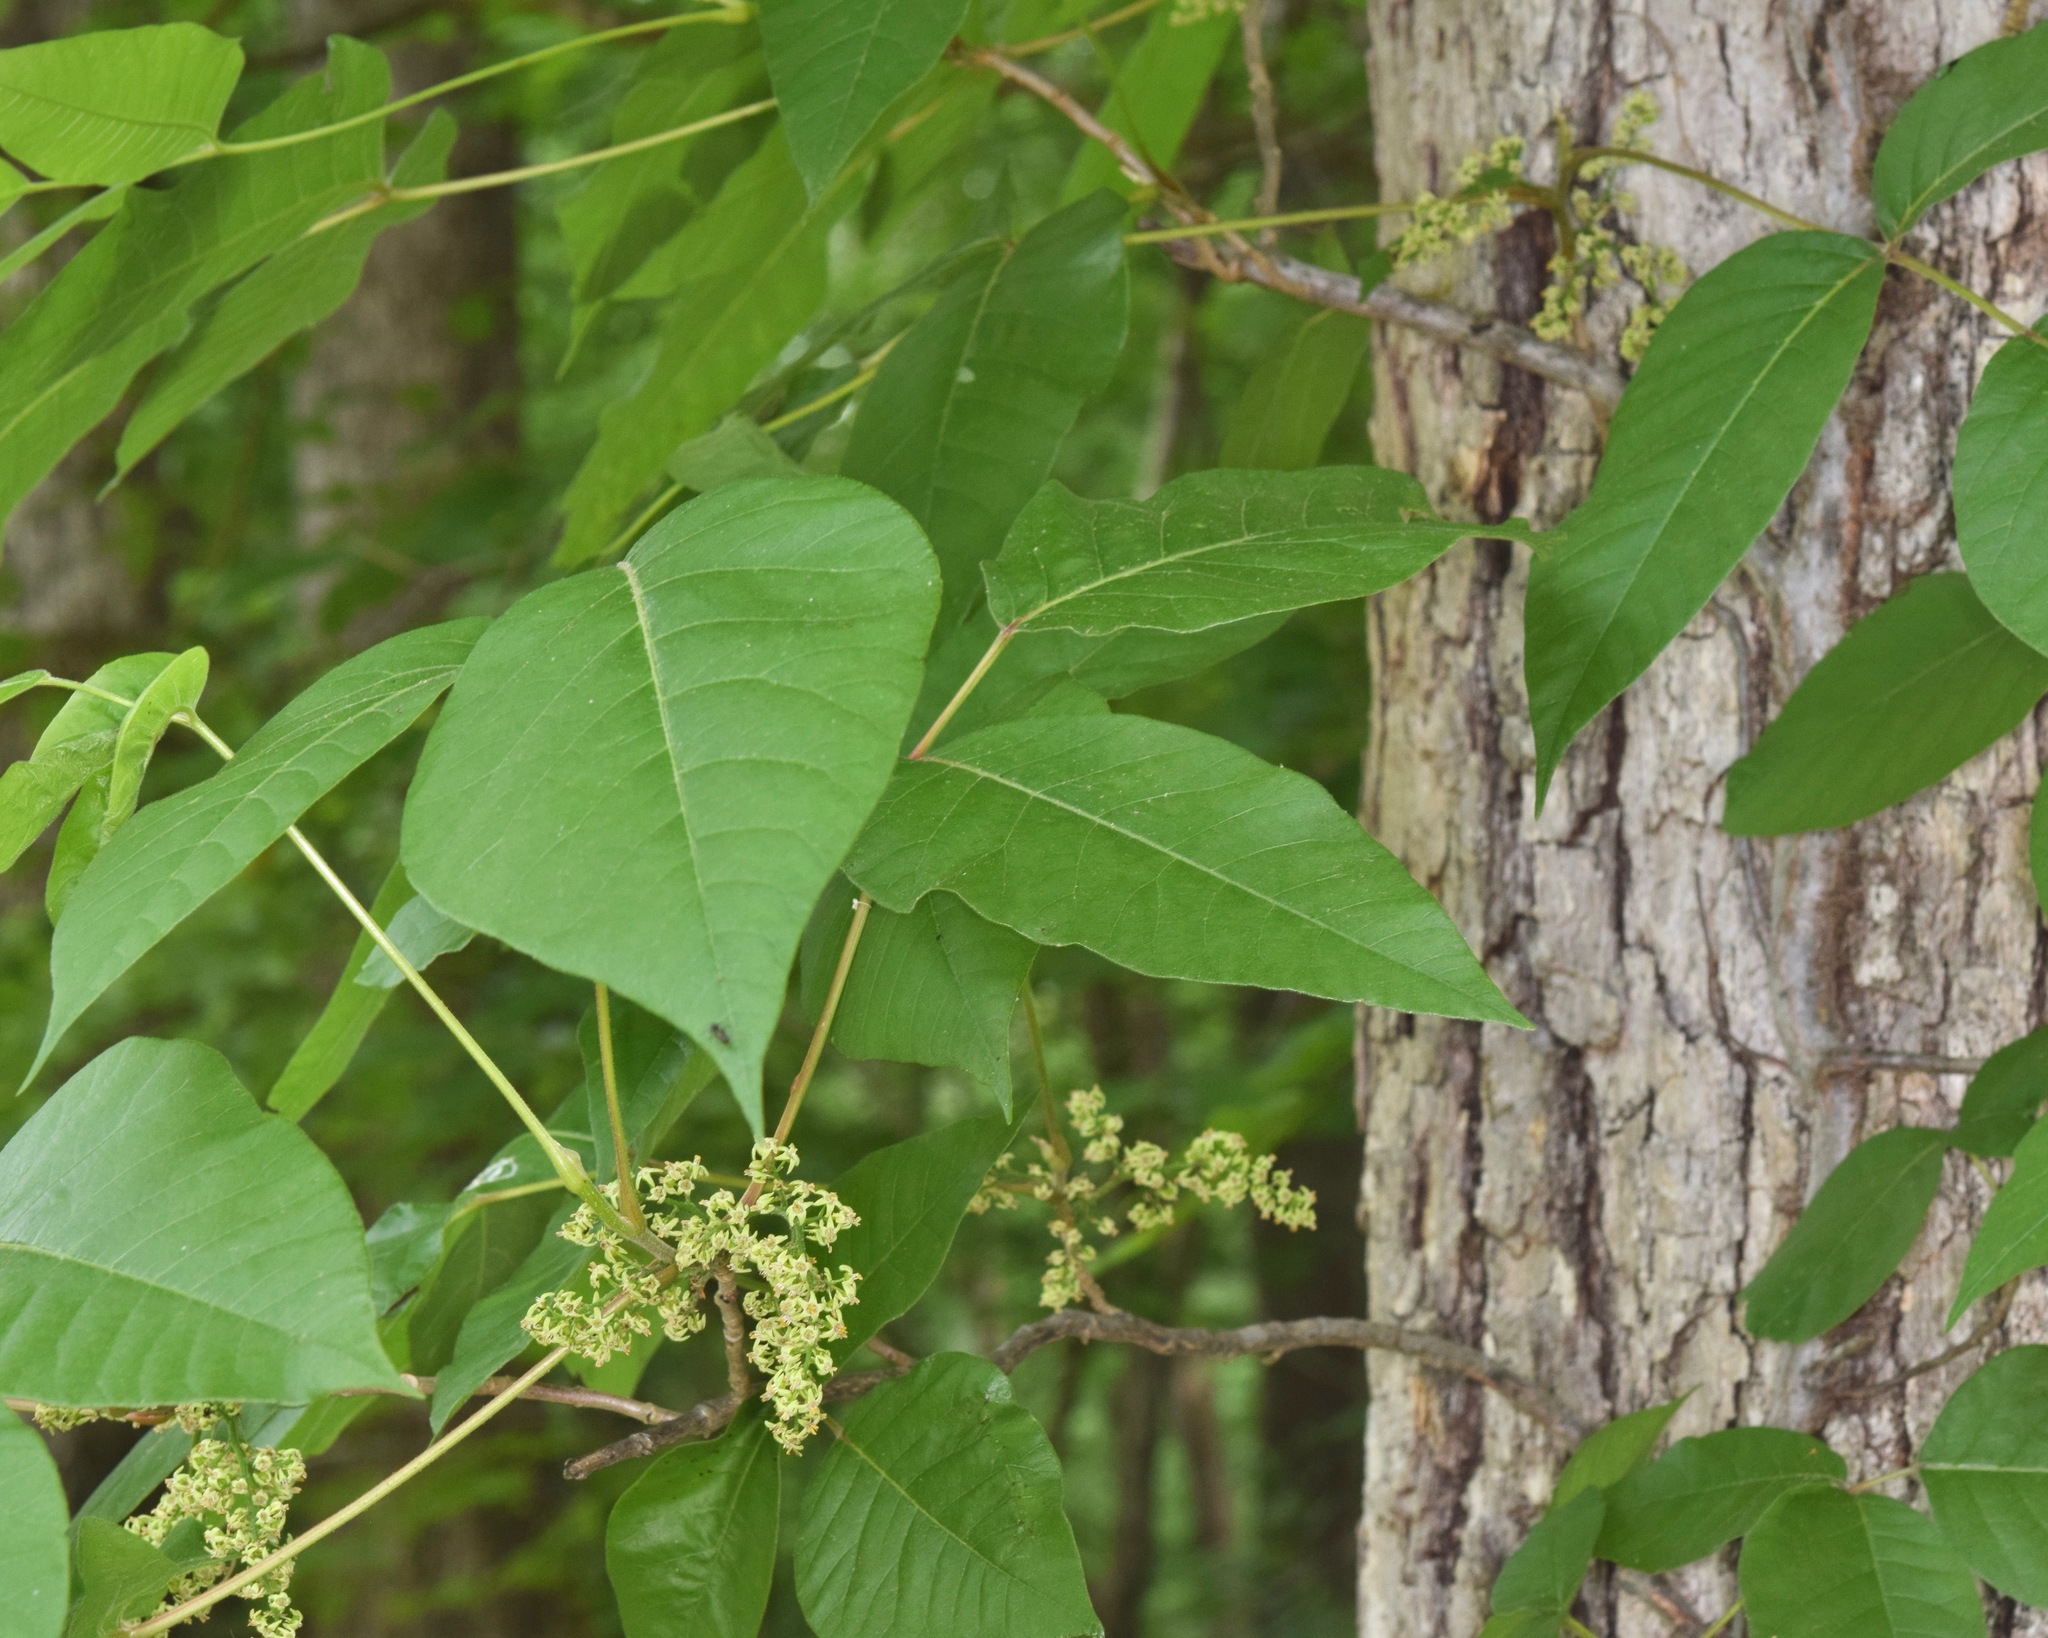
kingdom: Plantae
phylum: Tracheophyta
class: Magnoliopsida
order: Sapindales
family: Anacardiaceae
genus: Toxicodendron
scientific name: Toxicodendron radicans
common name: Poison ivy
